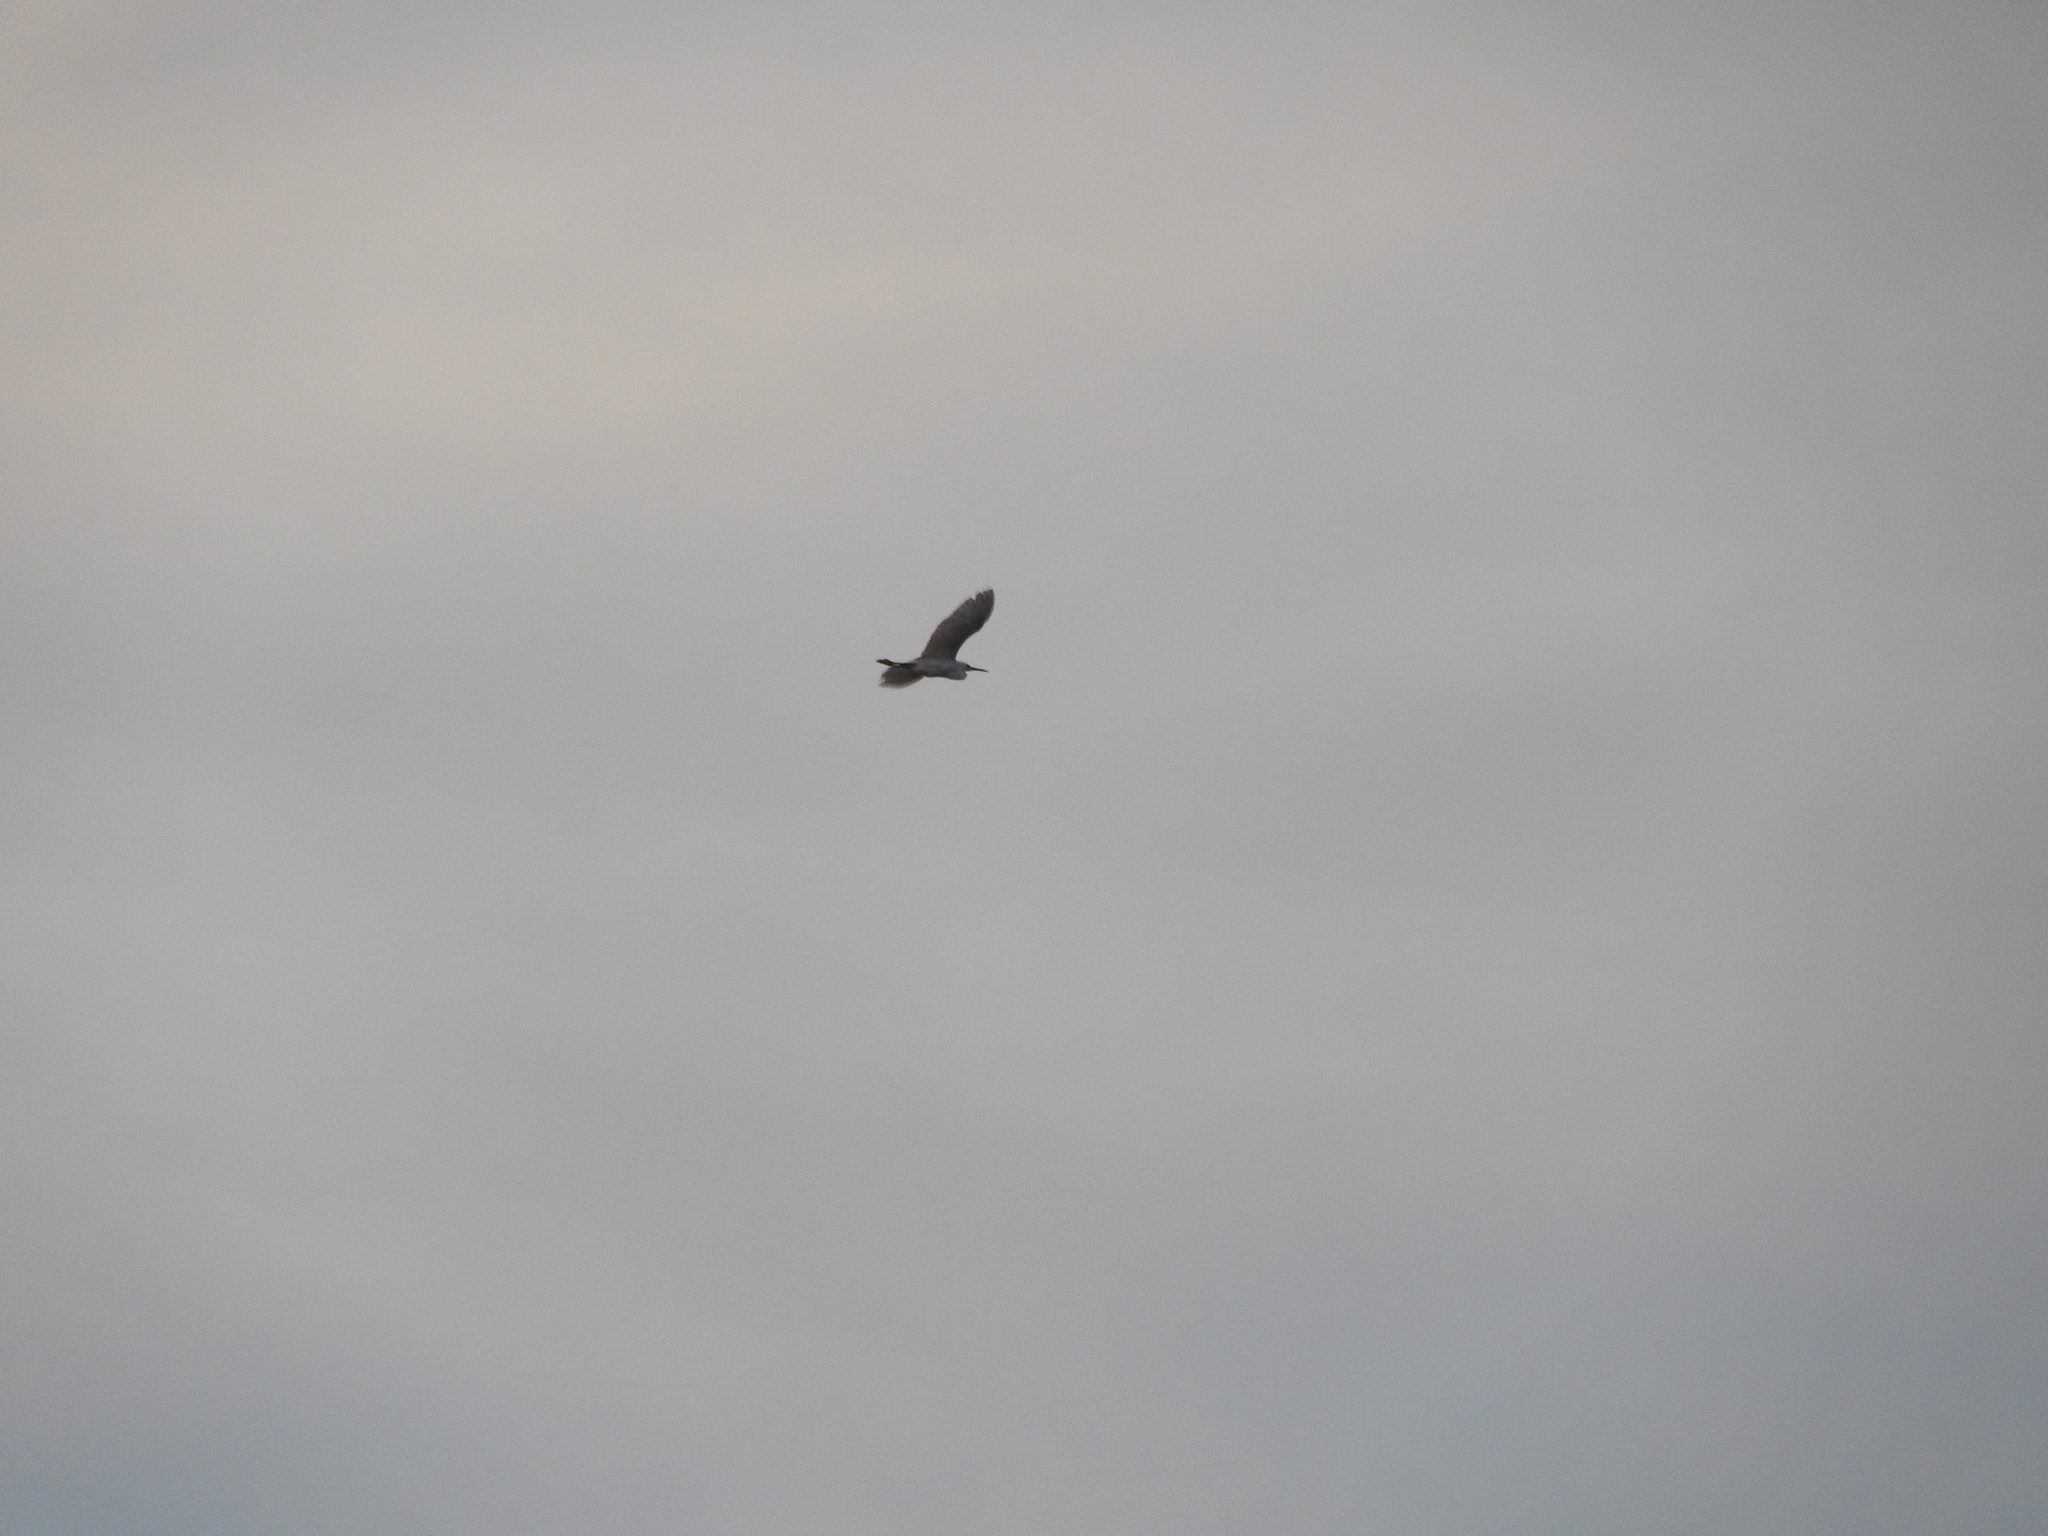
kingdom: Animalia
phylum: Chordata
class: Aves
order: Pelecaniformes
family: Ardeidae
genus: Egretta
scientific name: Egretta thula
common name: Snowy egret
